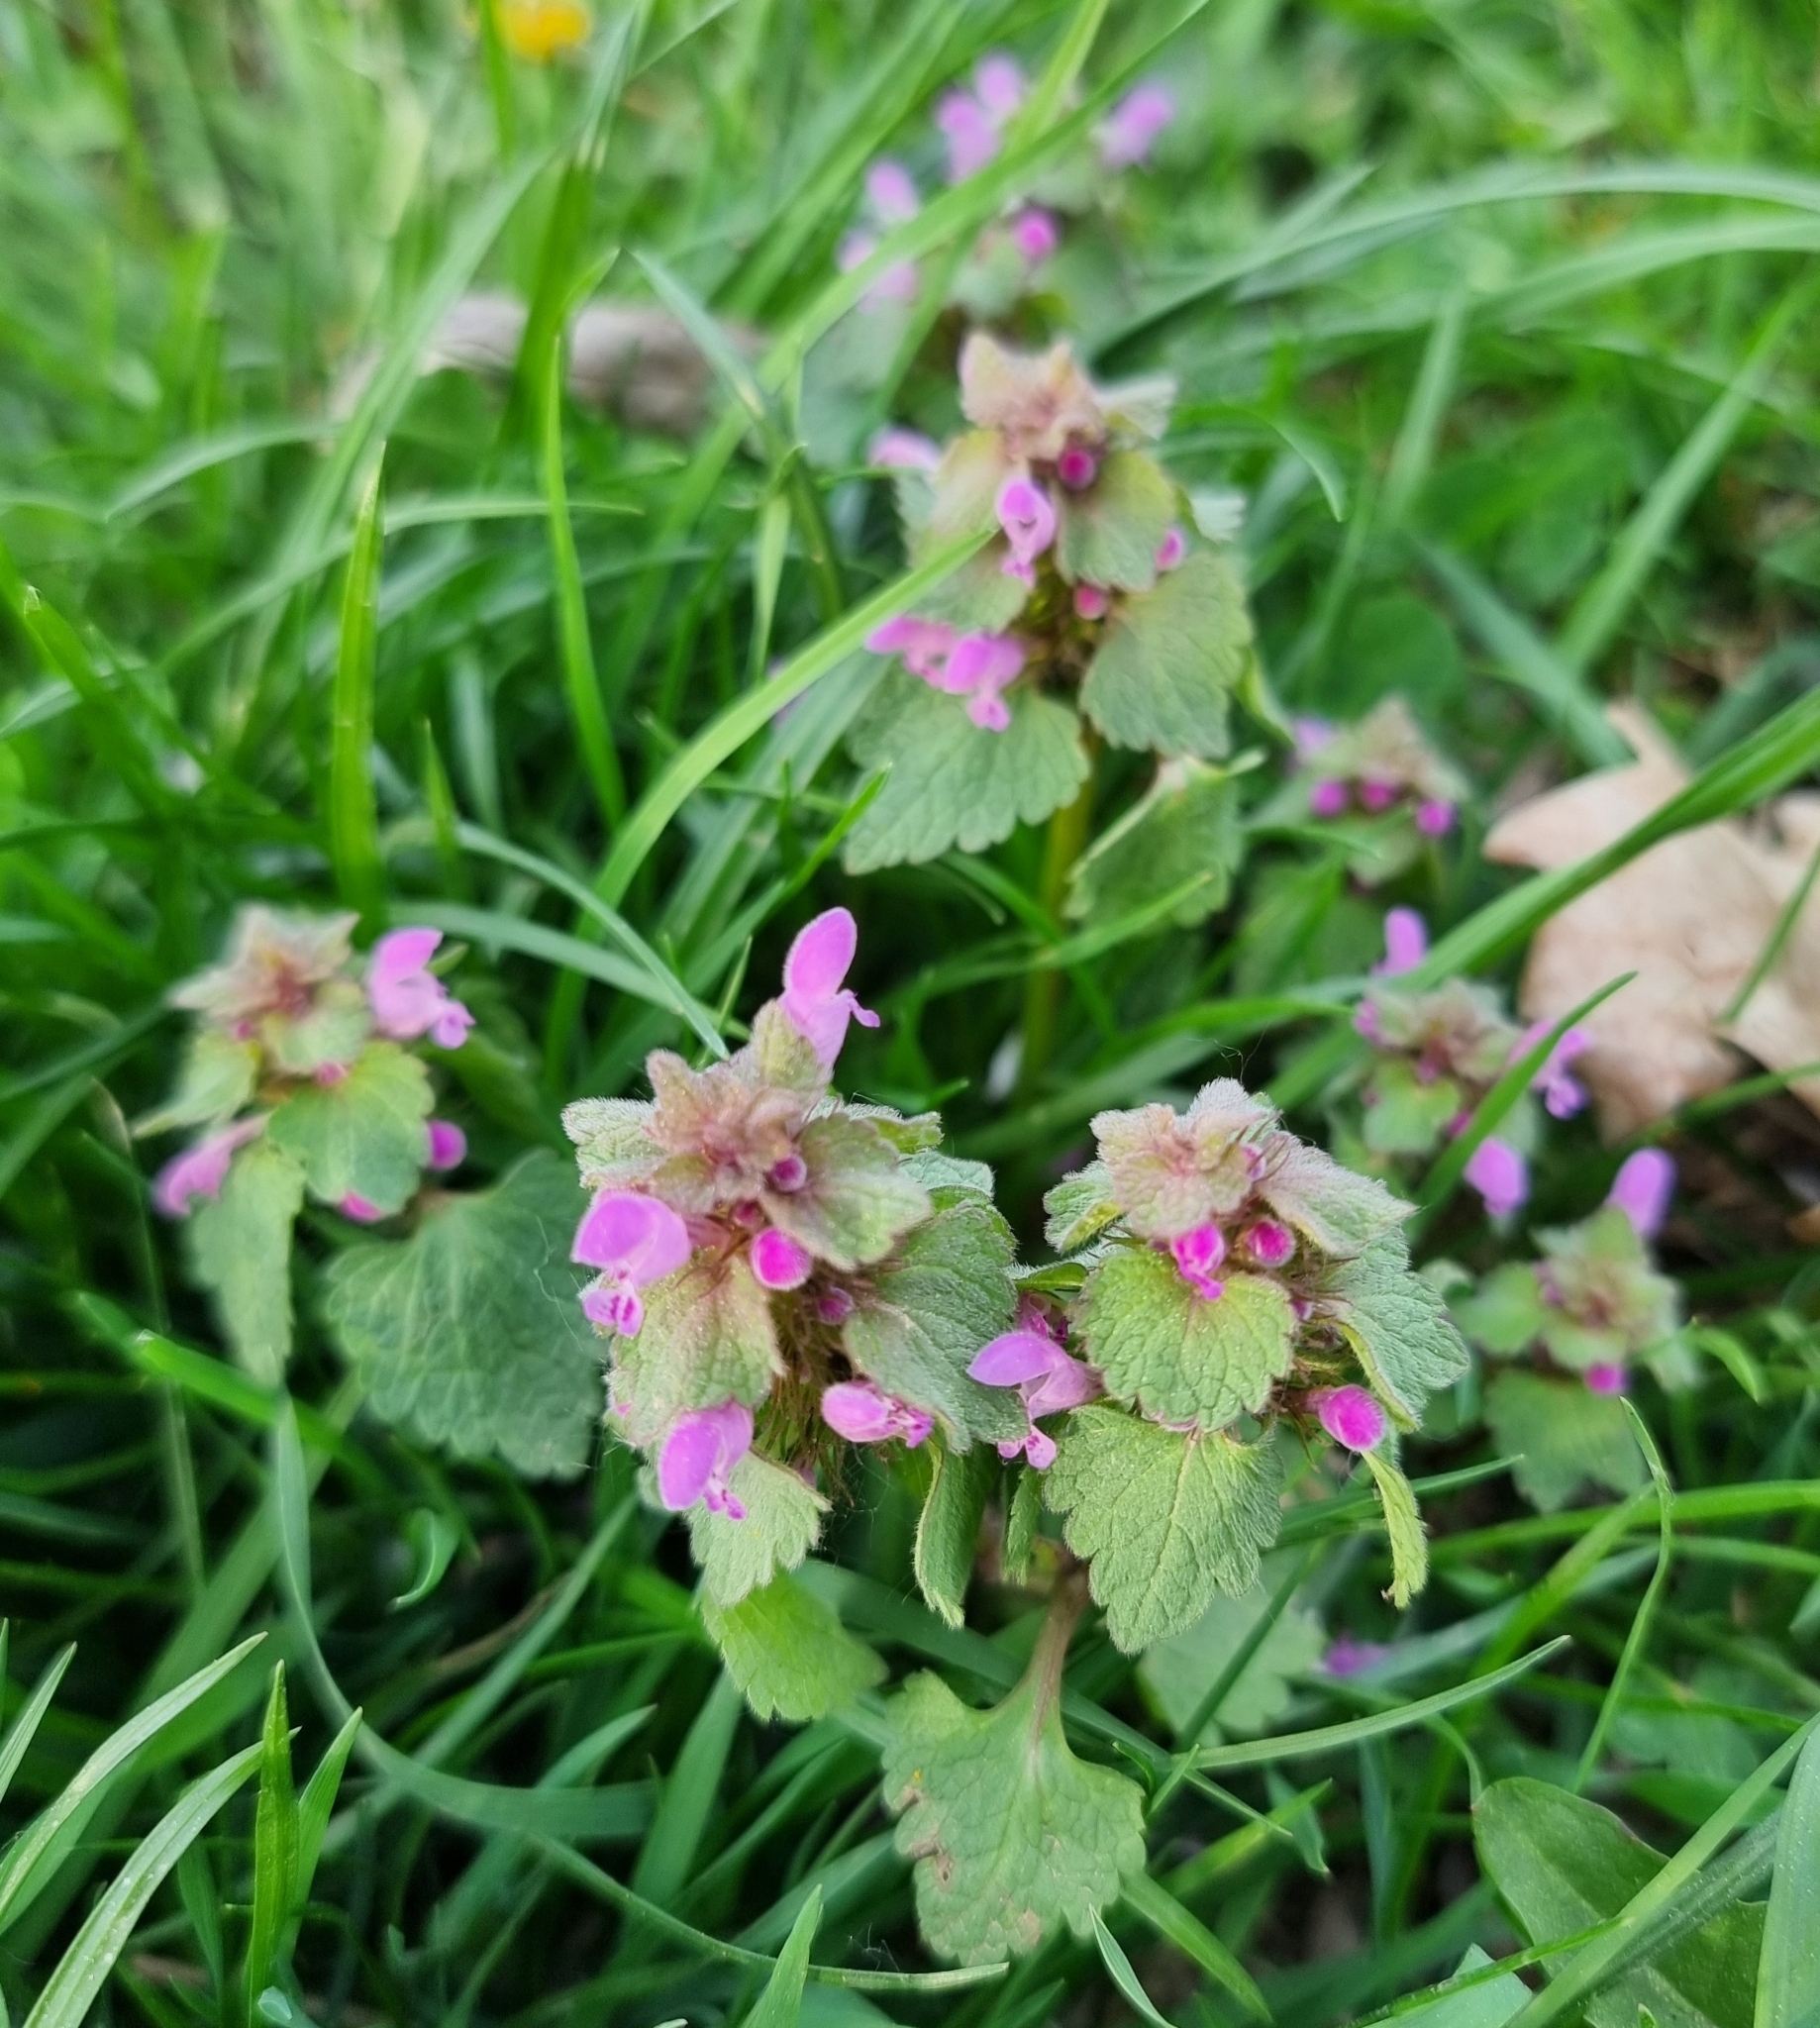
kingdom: Plantae
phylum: Tracheophyta
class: Magnoliopsida
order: Lamiales
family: Lamiaceae
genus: Lamium
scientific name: Lamium purpureum
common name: Red dead-nettle
